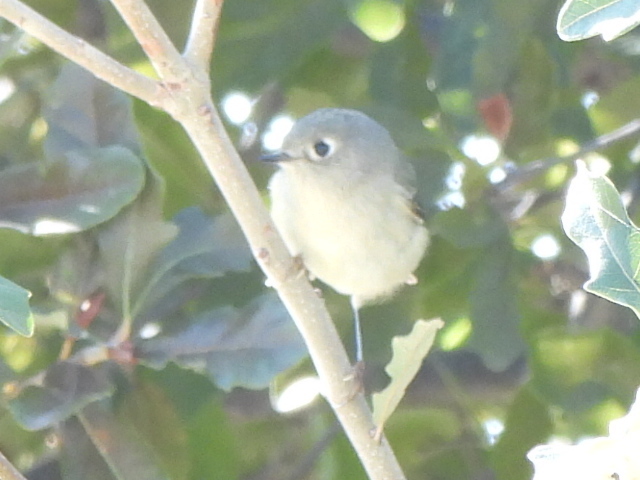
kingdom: Animalia
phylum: Chordata
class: Aves
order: Passeriformes
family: Regulidae
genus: Regulus
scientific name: Regulus calendula
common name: Ruby-crowned kinglet
